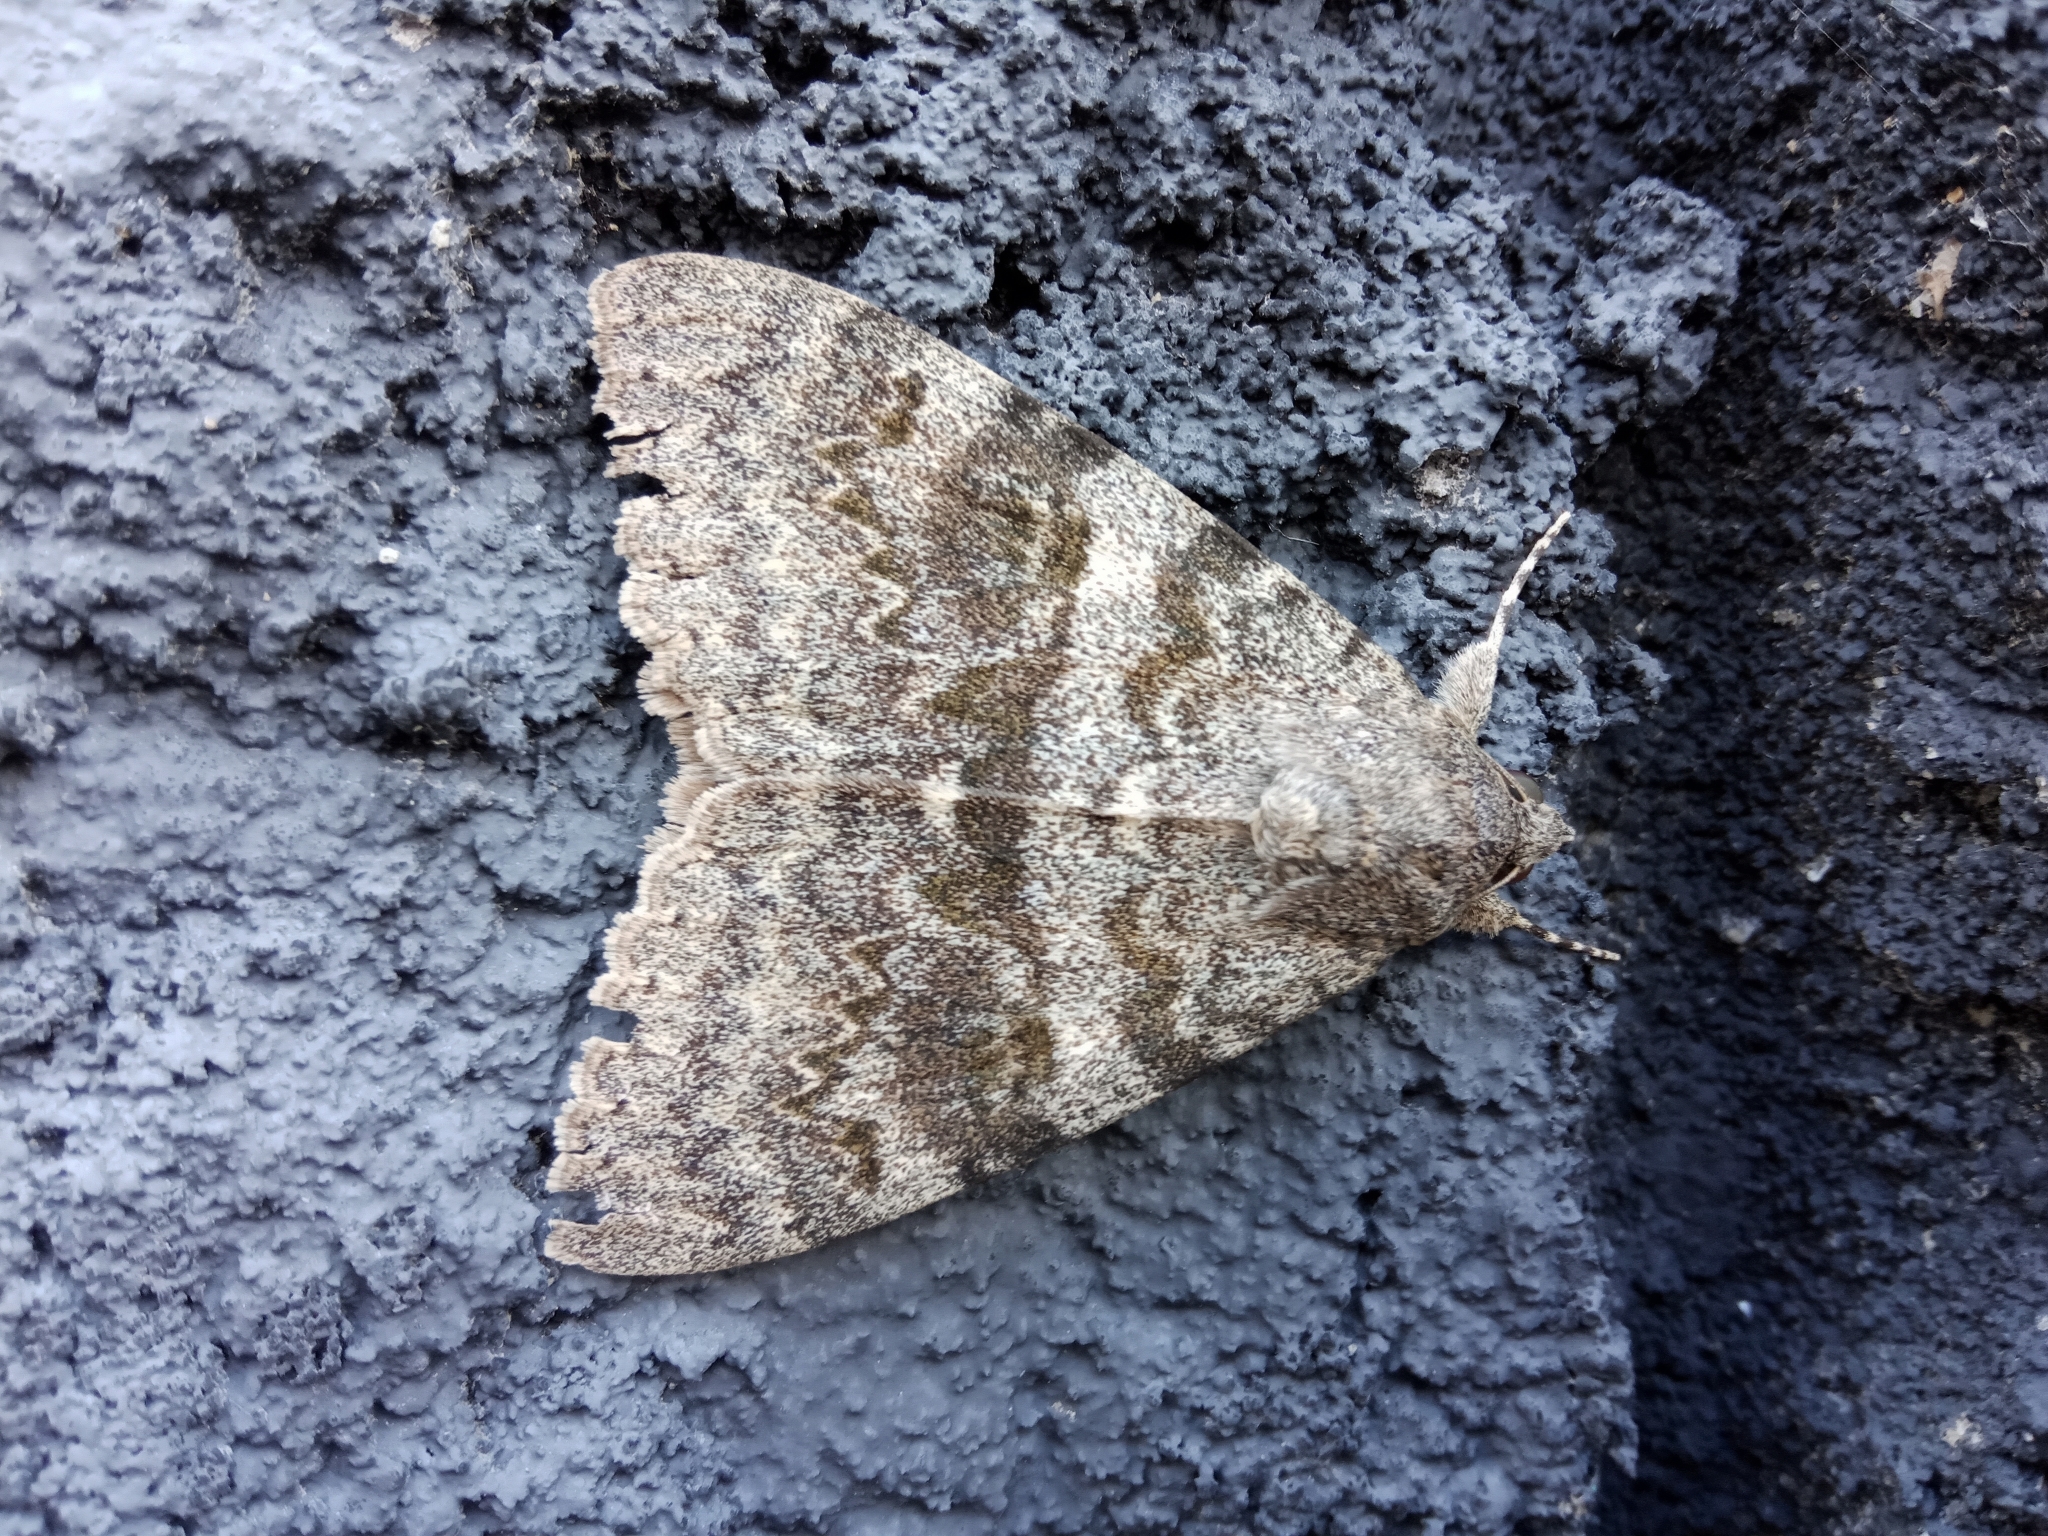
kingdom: Animalia
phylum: Arthropoda
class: Insecta
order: Lepidoptera
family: Erebidae
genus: Catocala
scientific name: Catocala deducta
